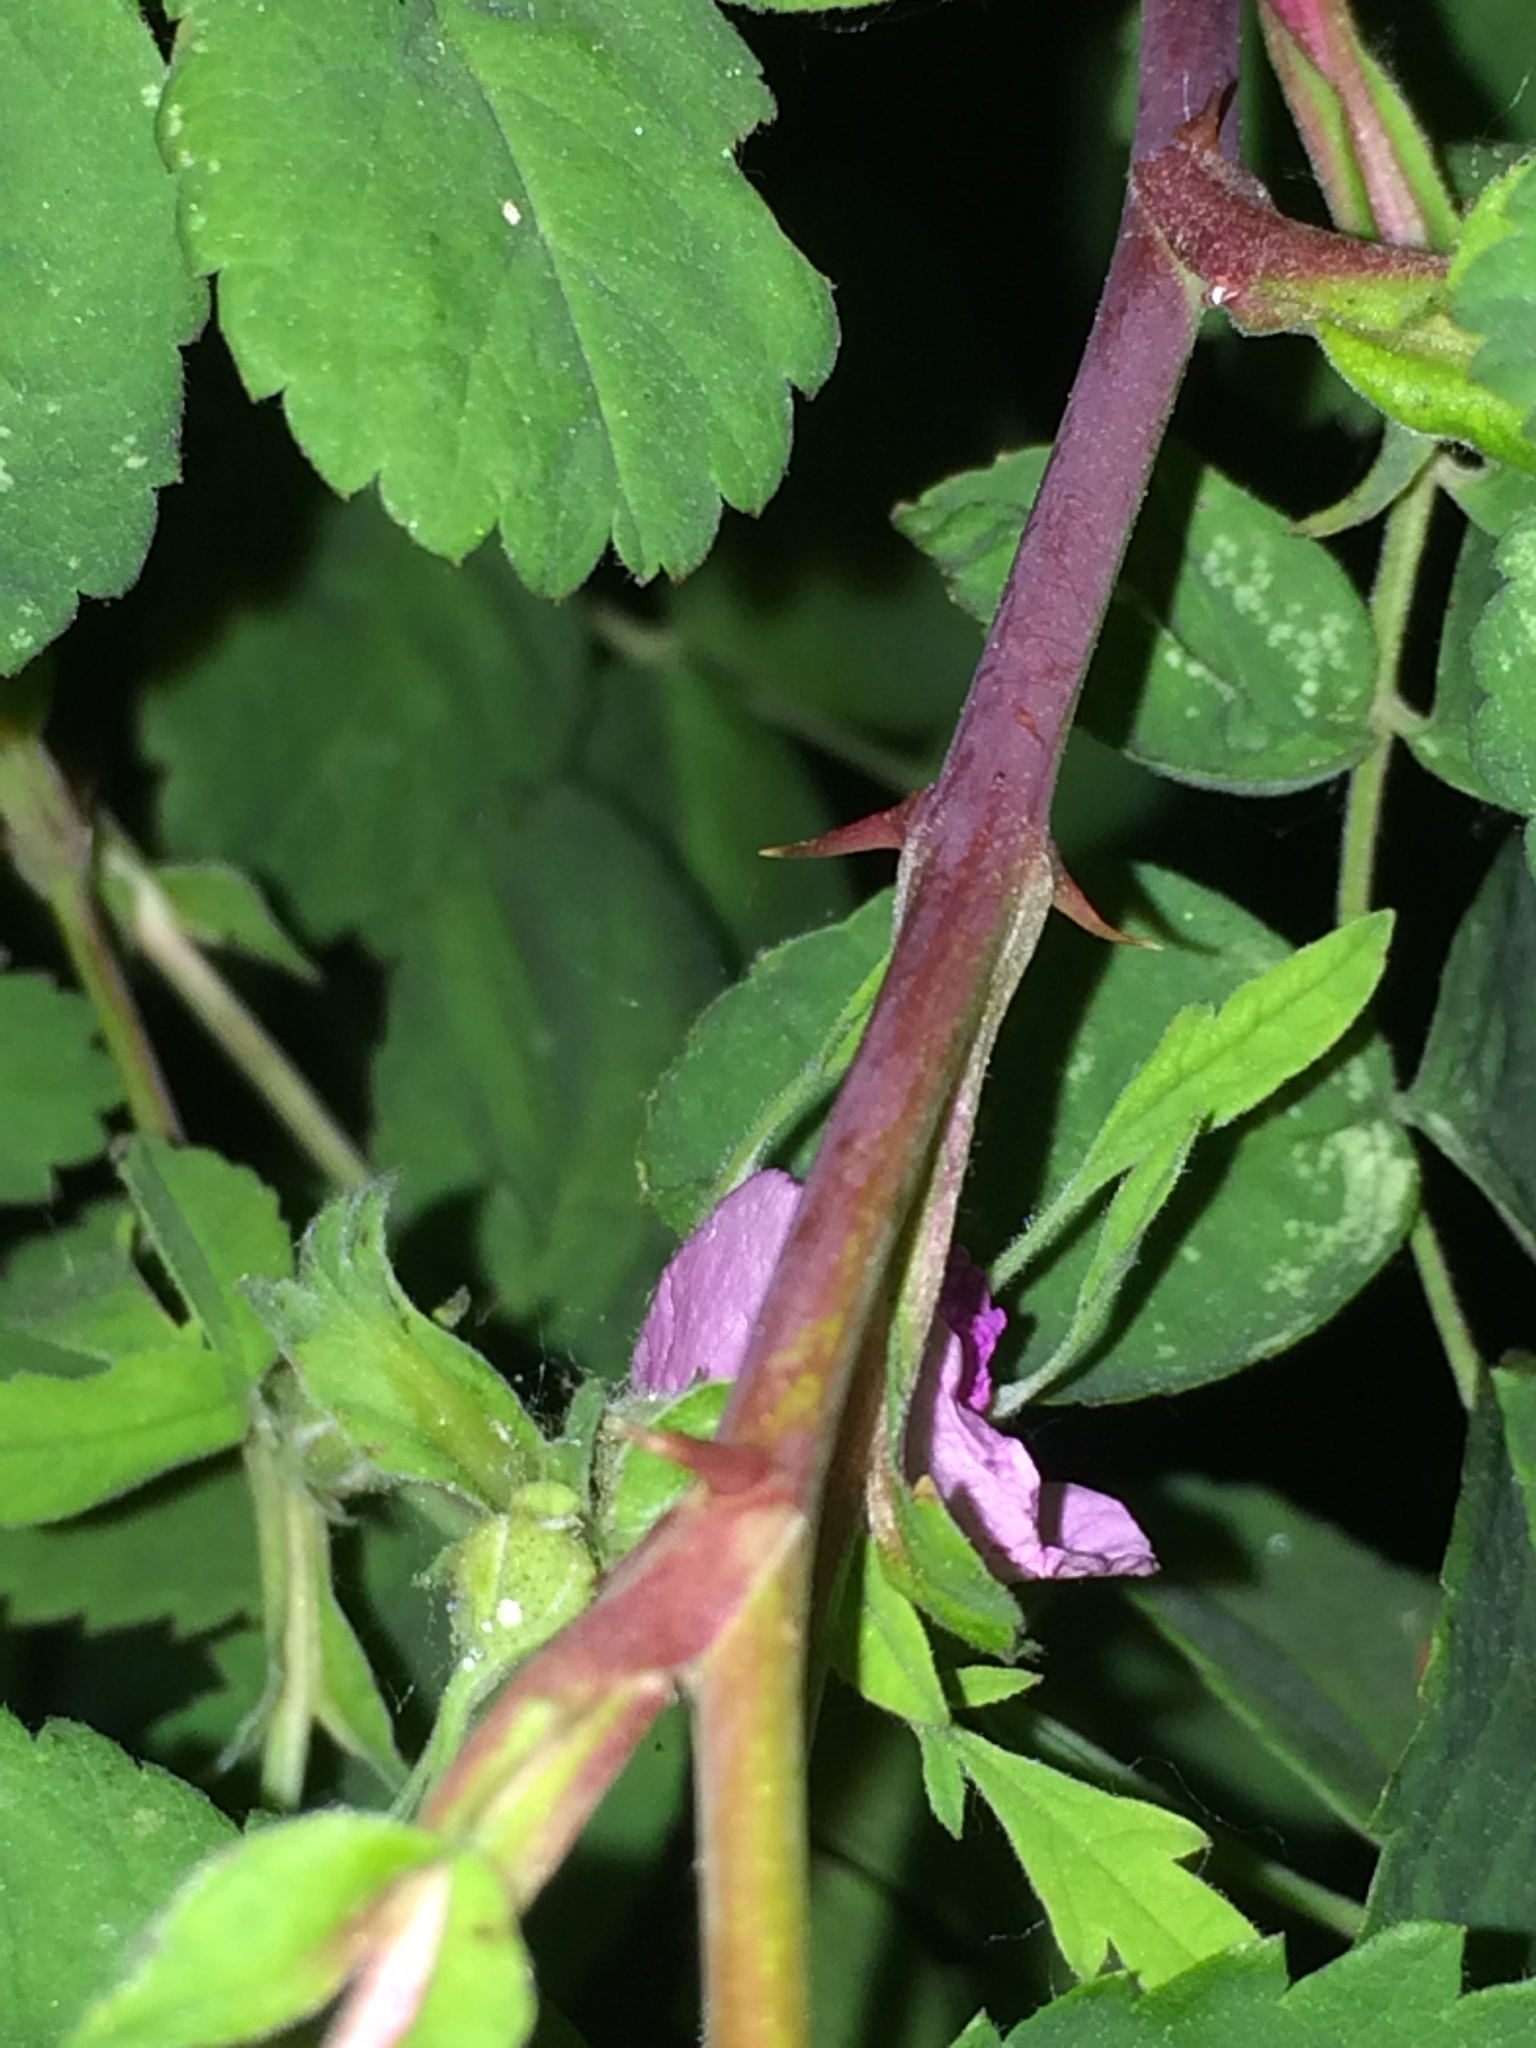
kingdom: Plantae
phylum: Tracheophyta
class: Magnoliopsida
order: Rosales
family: Rosaceae
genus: Rosa
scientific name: Rosa nutkana
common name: Nootka rose
